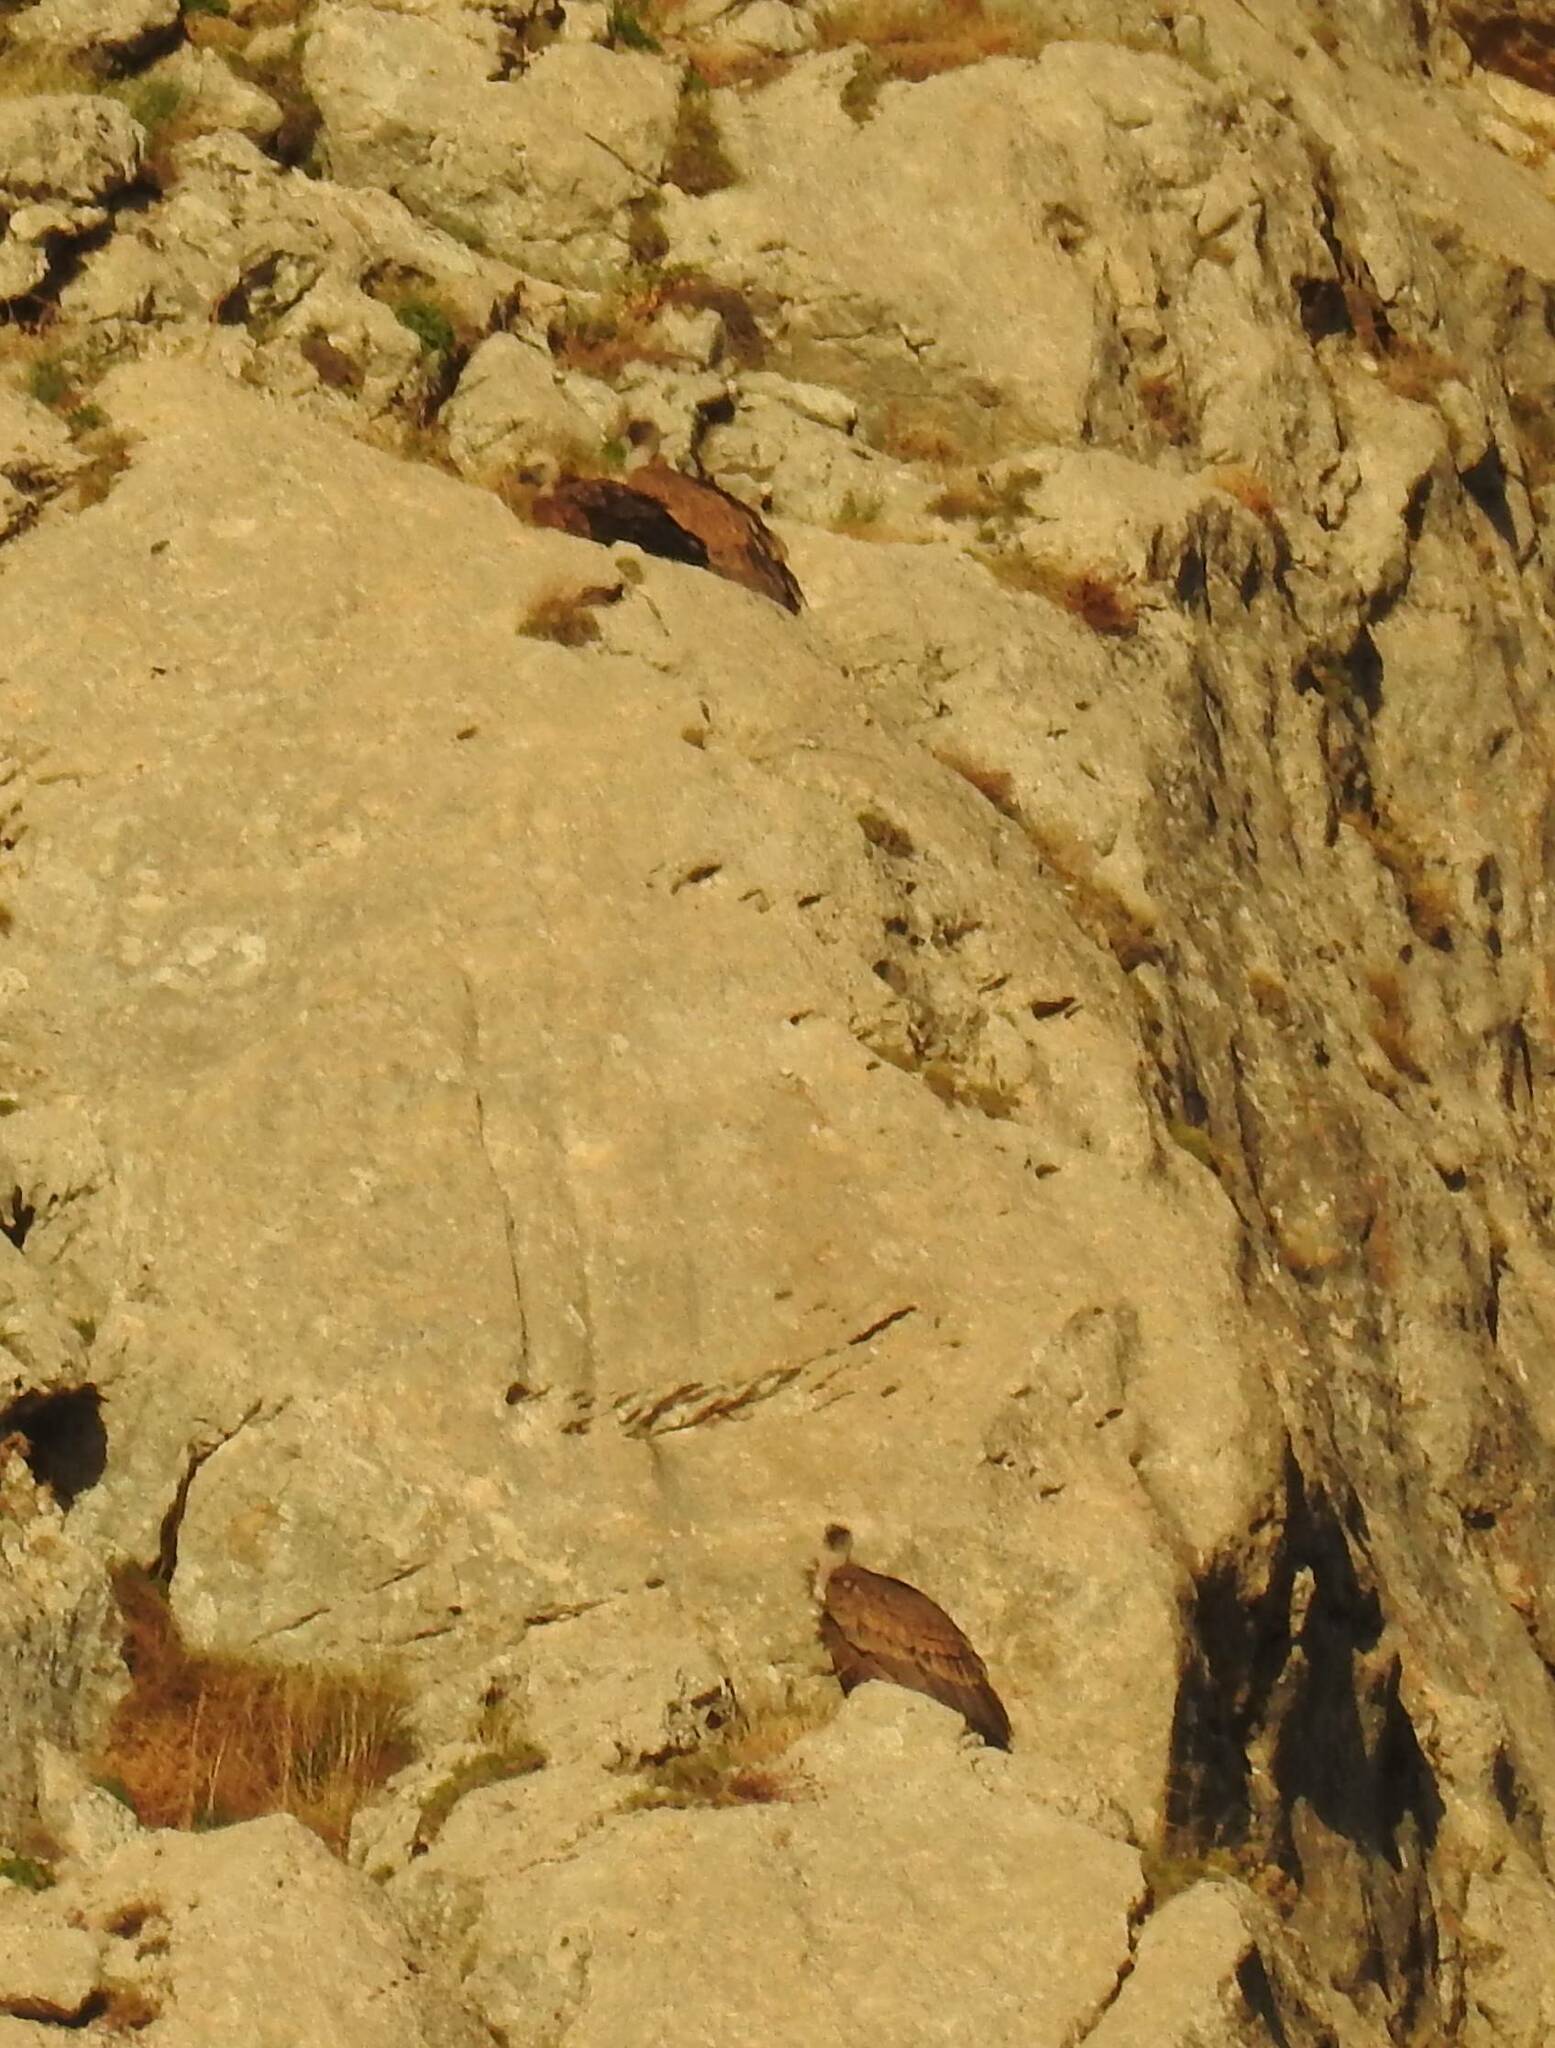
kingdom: Animalia
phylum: Chordata
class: Aves
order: Accipitriformes
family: Accipitridae
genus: Gyps
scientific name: Gyps fulvus
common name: Griffon vulture
